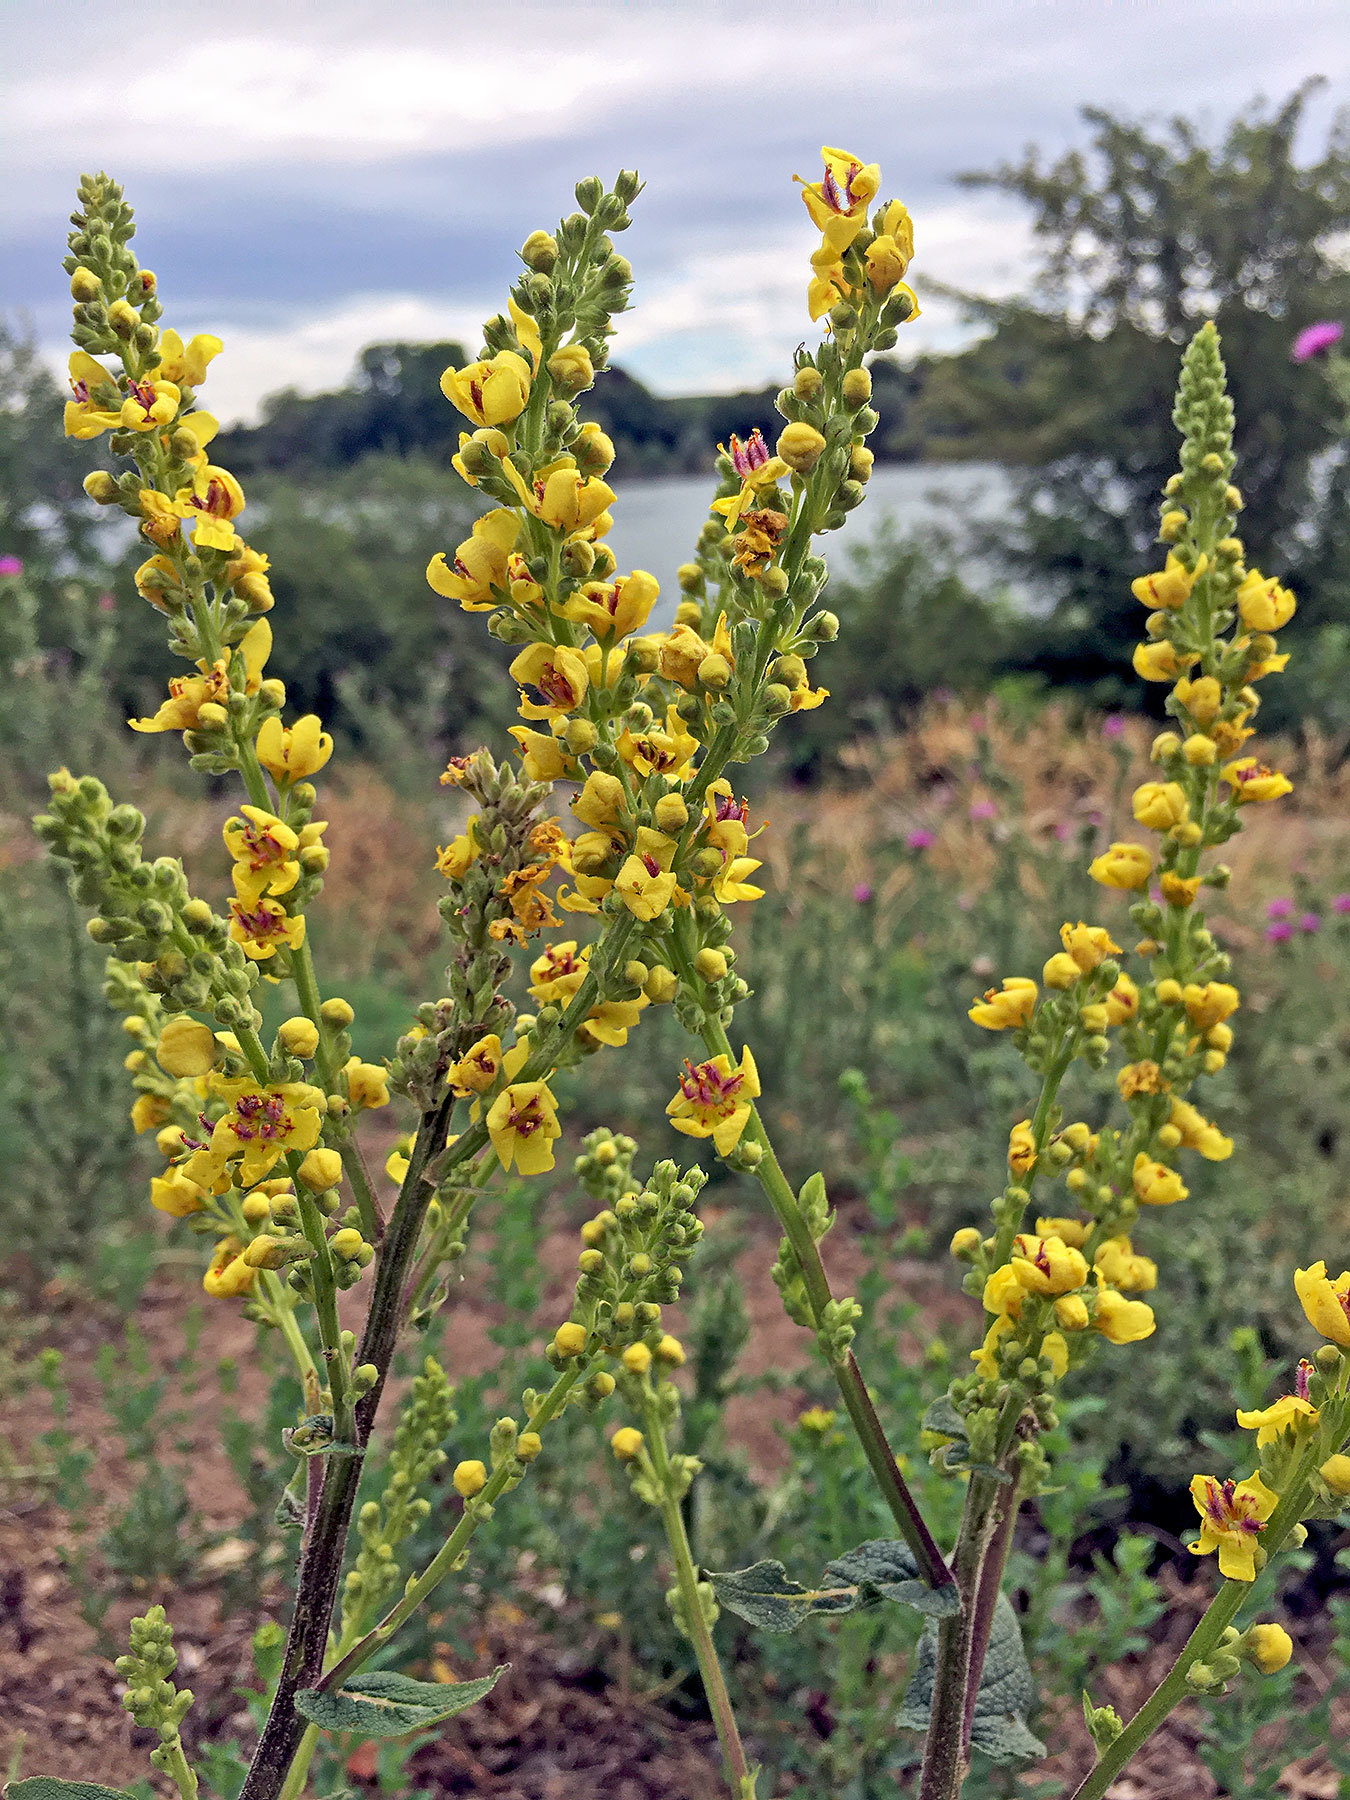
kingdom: Plantae
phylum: Tracheophyta
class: Magnoliopsida
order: Lamiales
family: Scrophulariaceae
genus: Verbascum
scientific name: Verbascum nigrum
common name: Dark mullein
